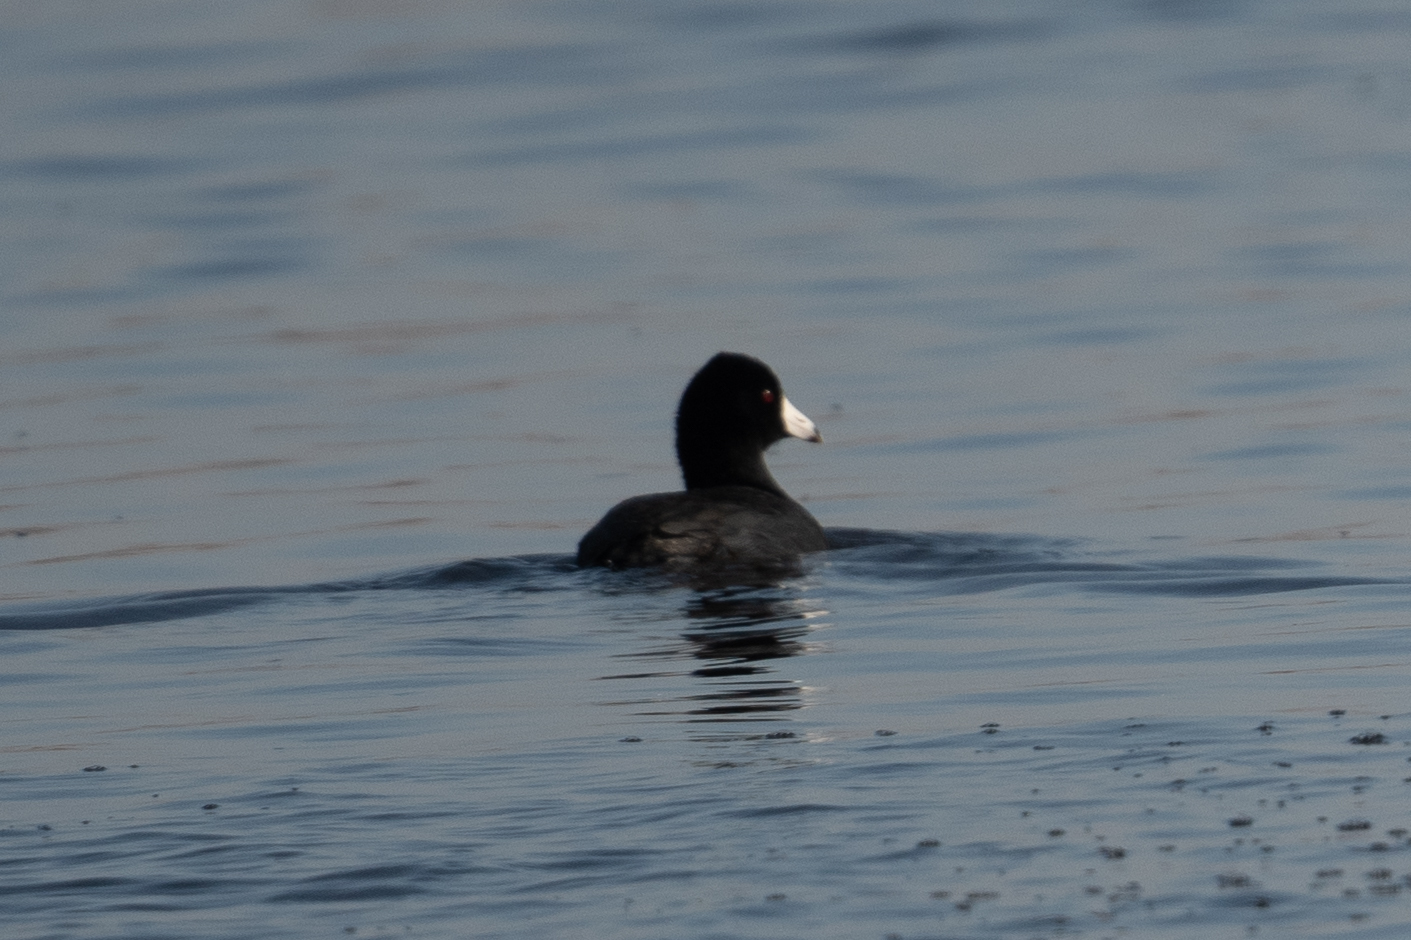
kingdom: Animalia
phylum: Chordata
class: Aves
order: Gruiformes
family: Rallidae
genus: Fulica
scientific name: Fulica americana
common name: American coot
